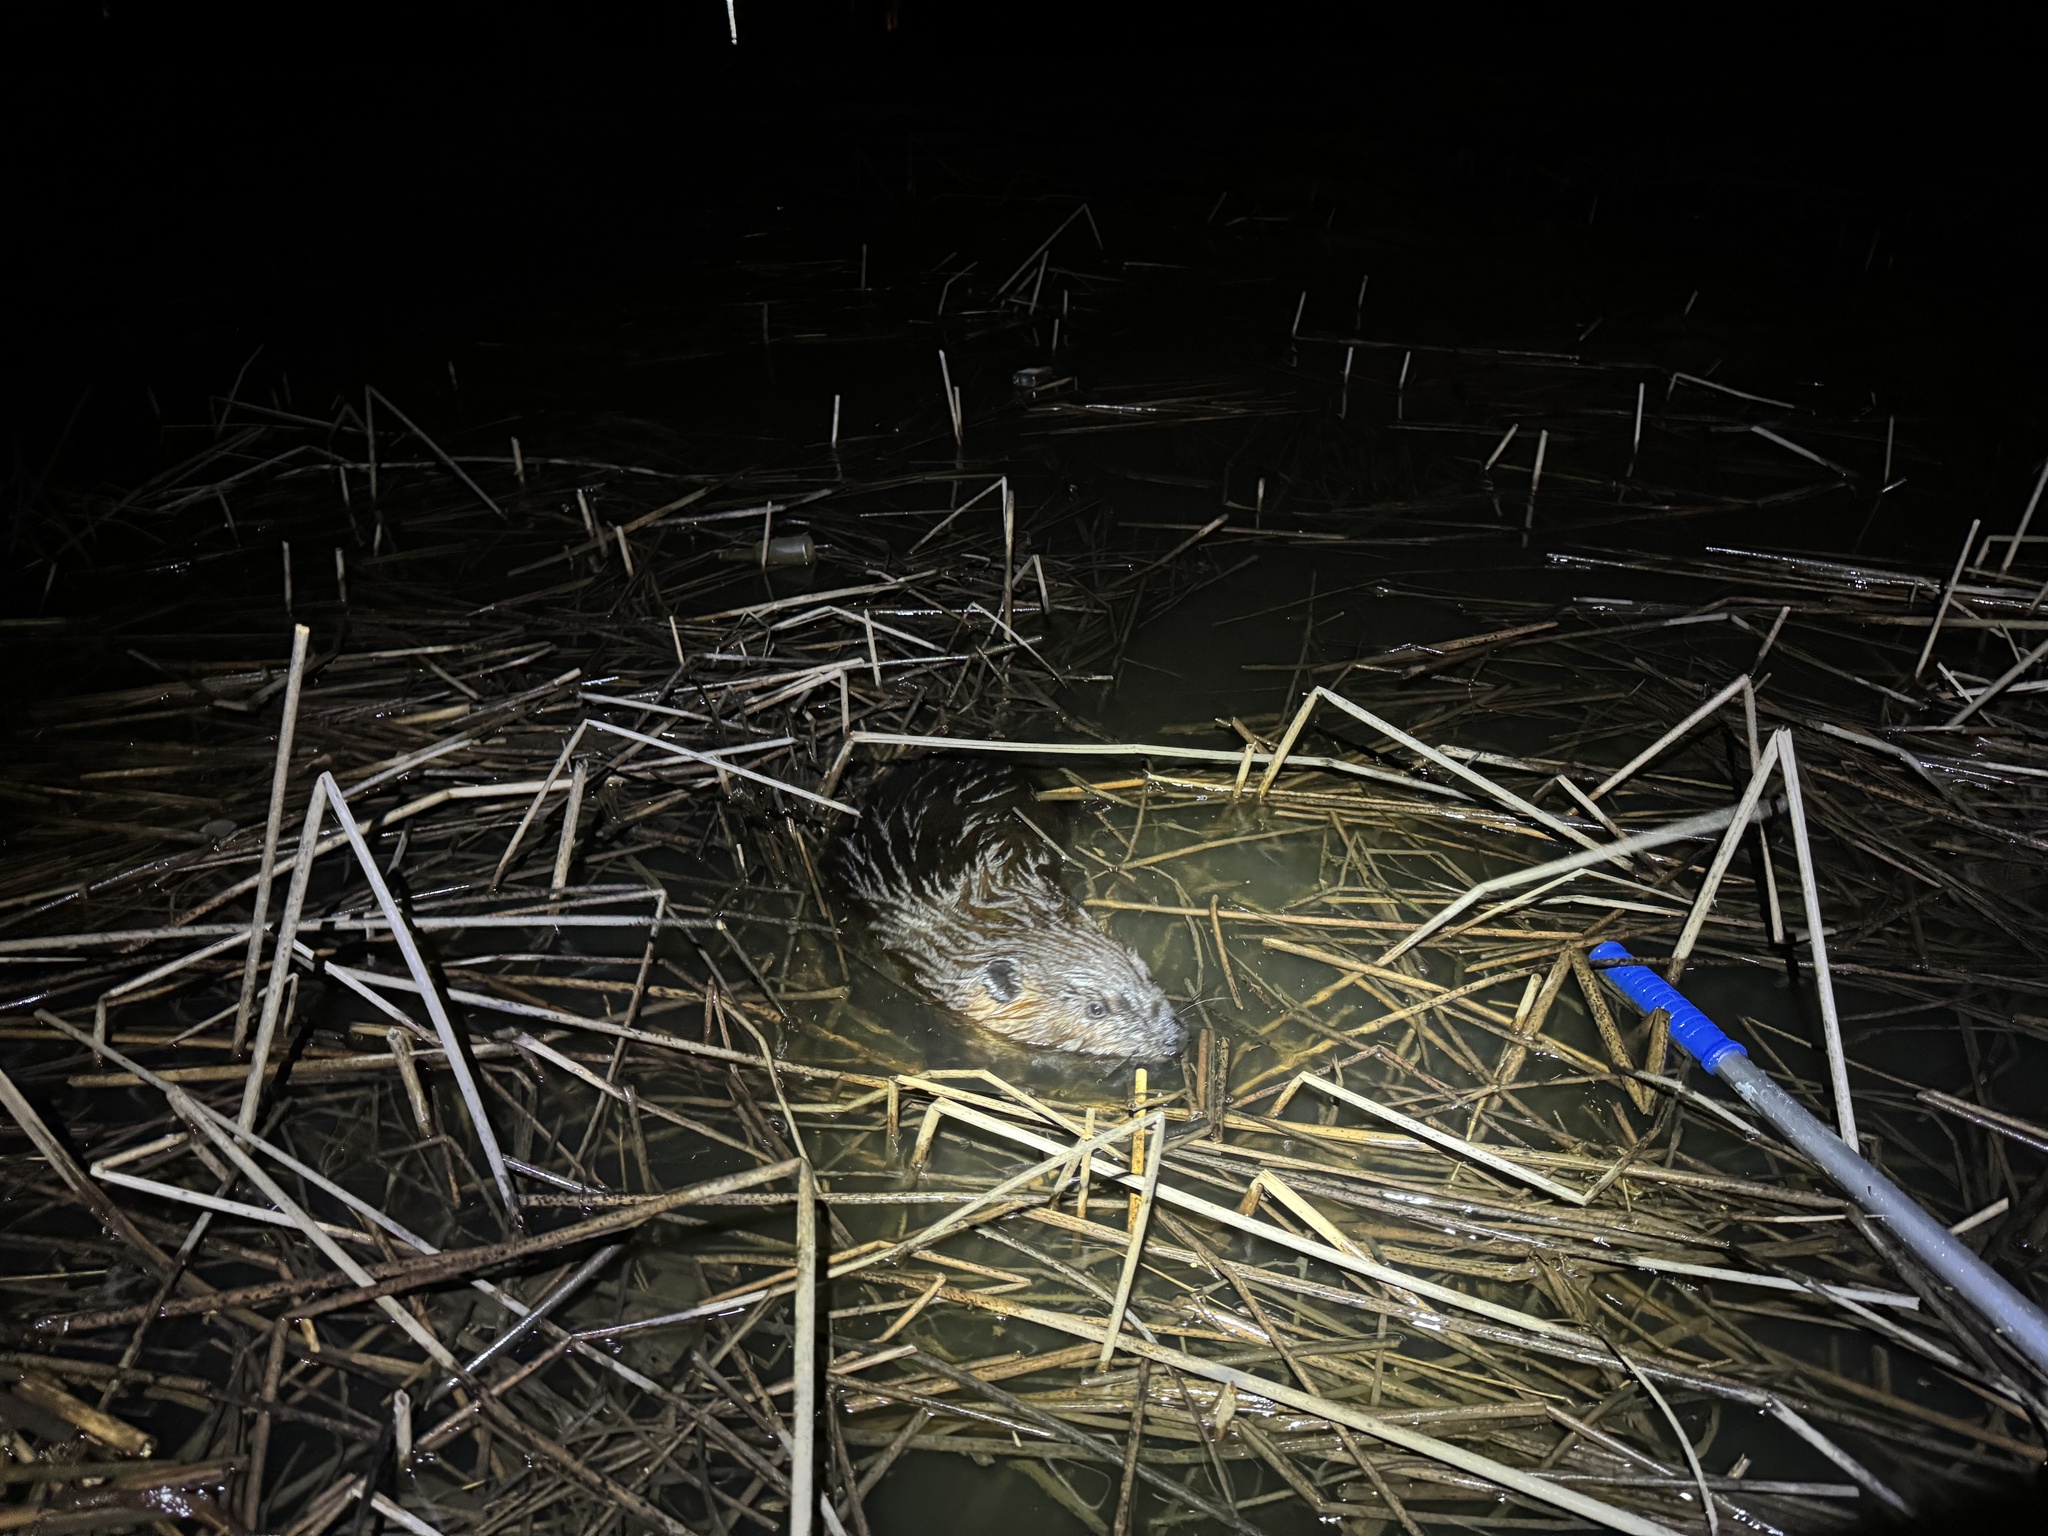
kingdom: Animalia
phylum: Chordata
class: Mammalia
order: Rodentia
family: Castoridae
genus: Castor
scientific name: Castor canadensis
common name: American beaver
